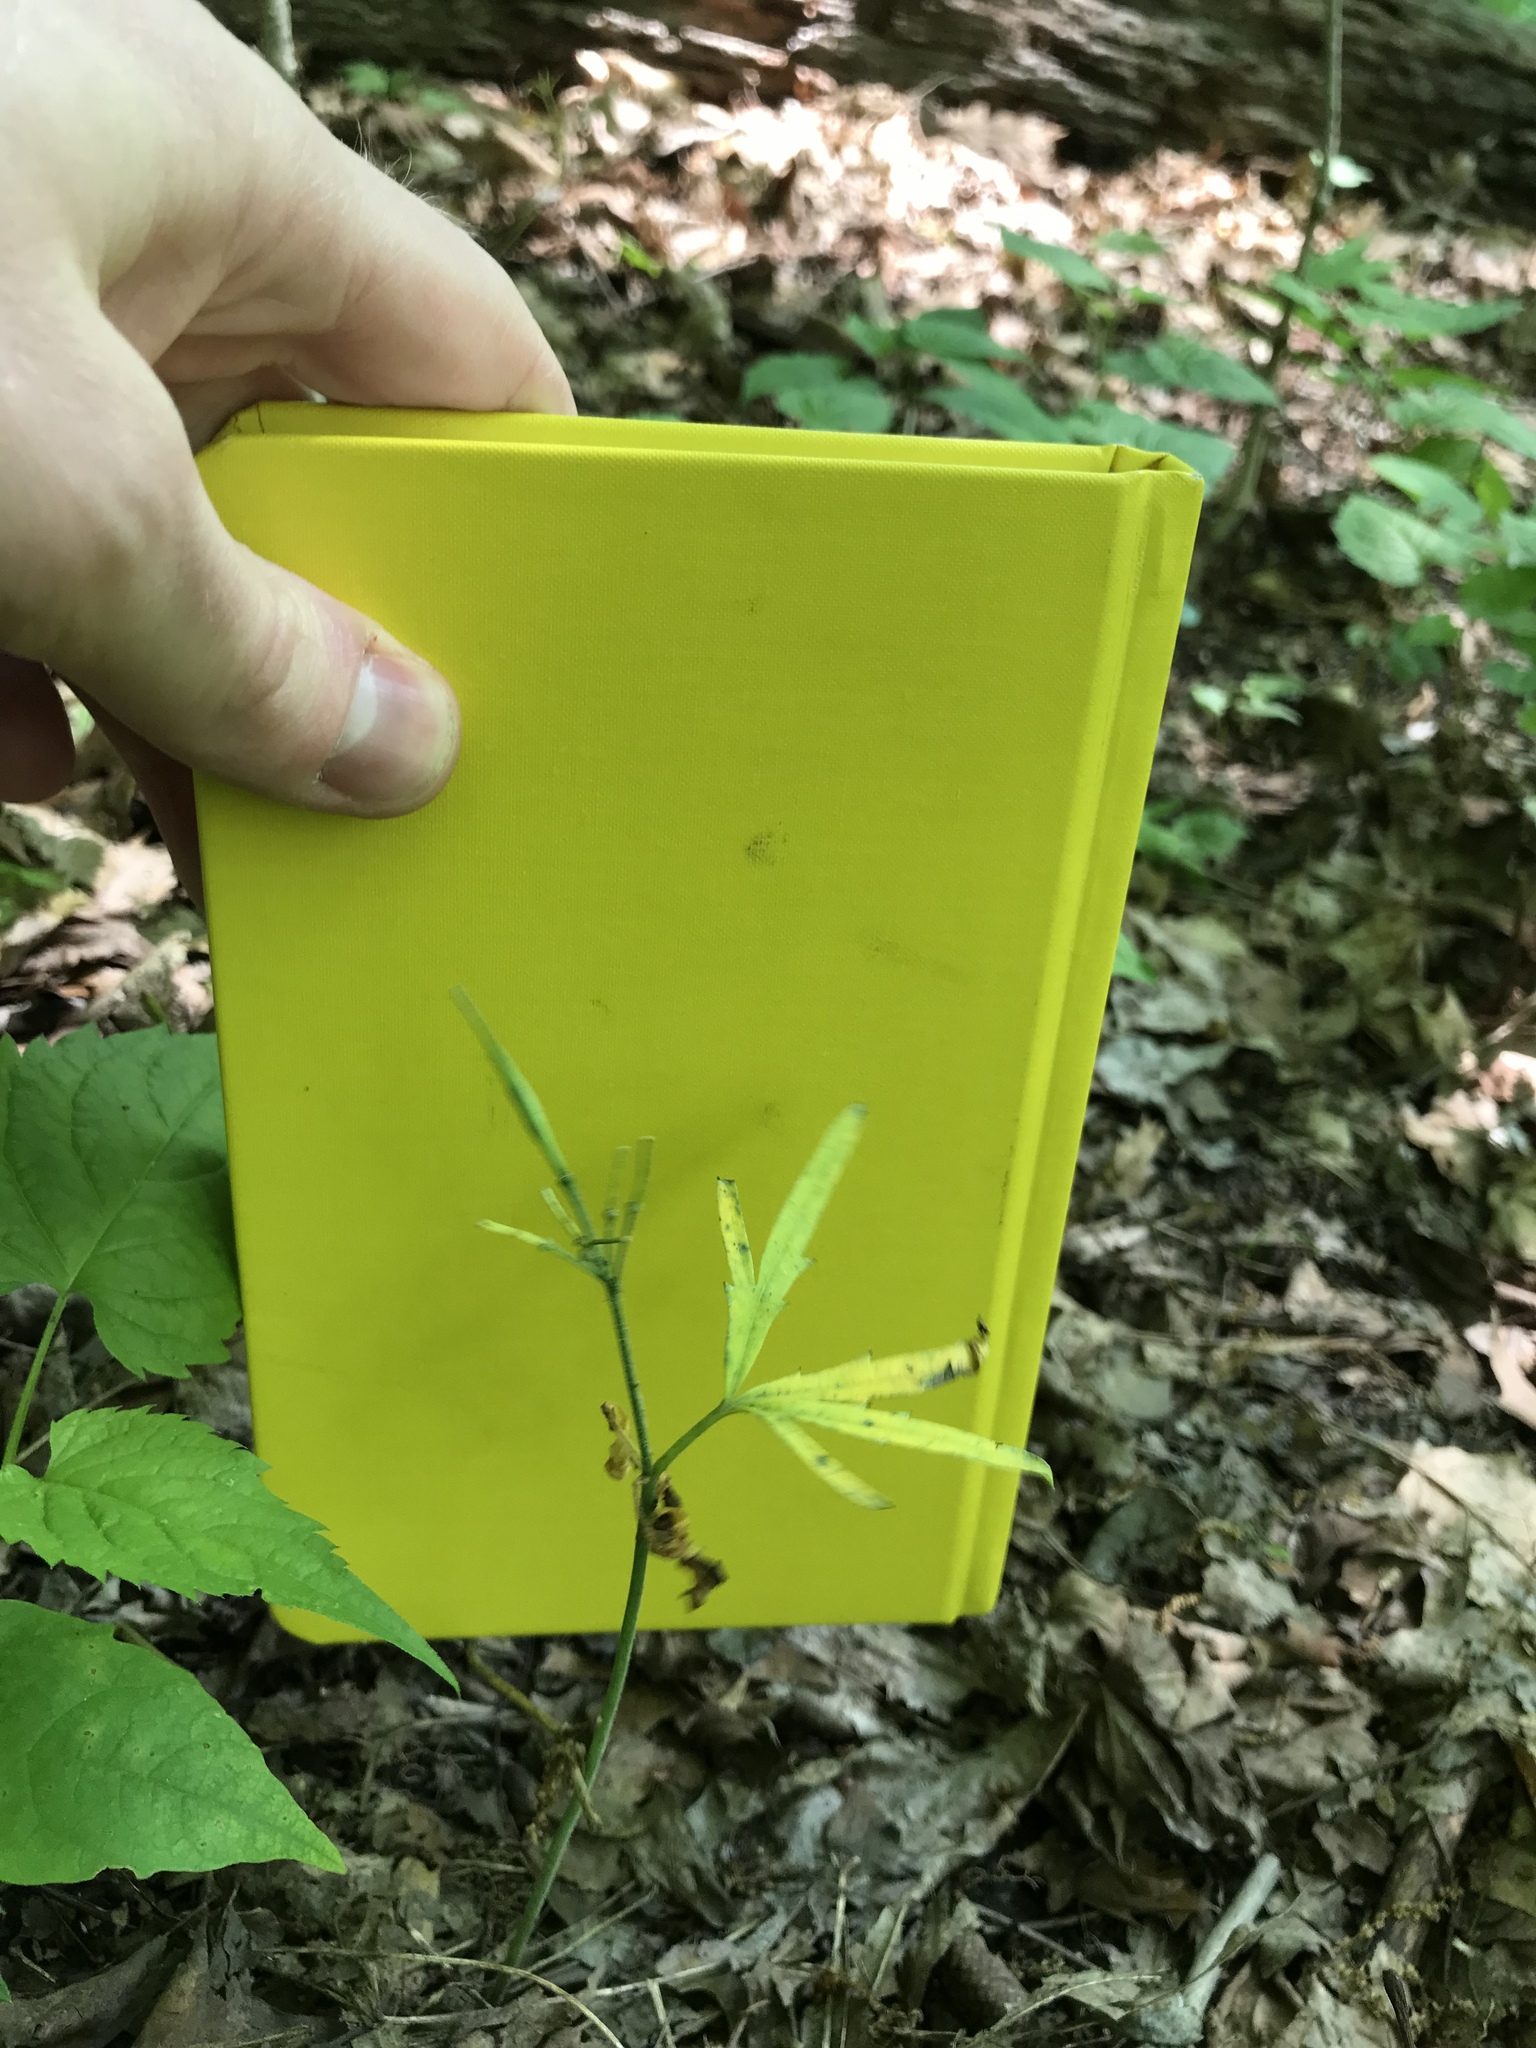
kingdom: Plantae
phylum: Tracheophyta
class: Magnoliopsida
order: Brassicales
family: Brassicaceae
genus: Cardamine
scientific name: Cardamine concatenata
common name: Cut-leaf toothcup
